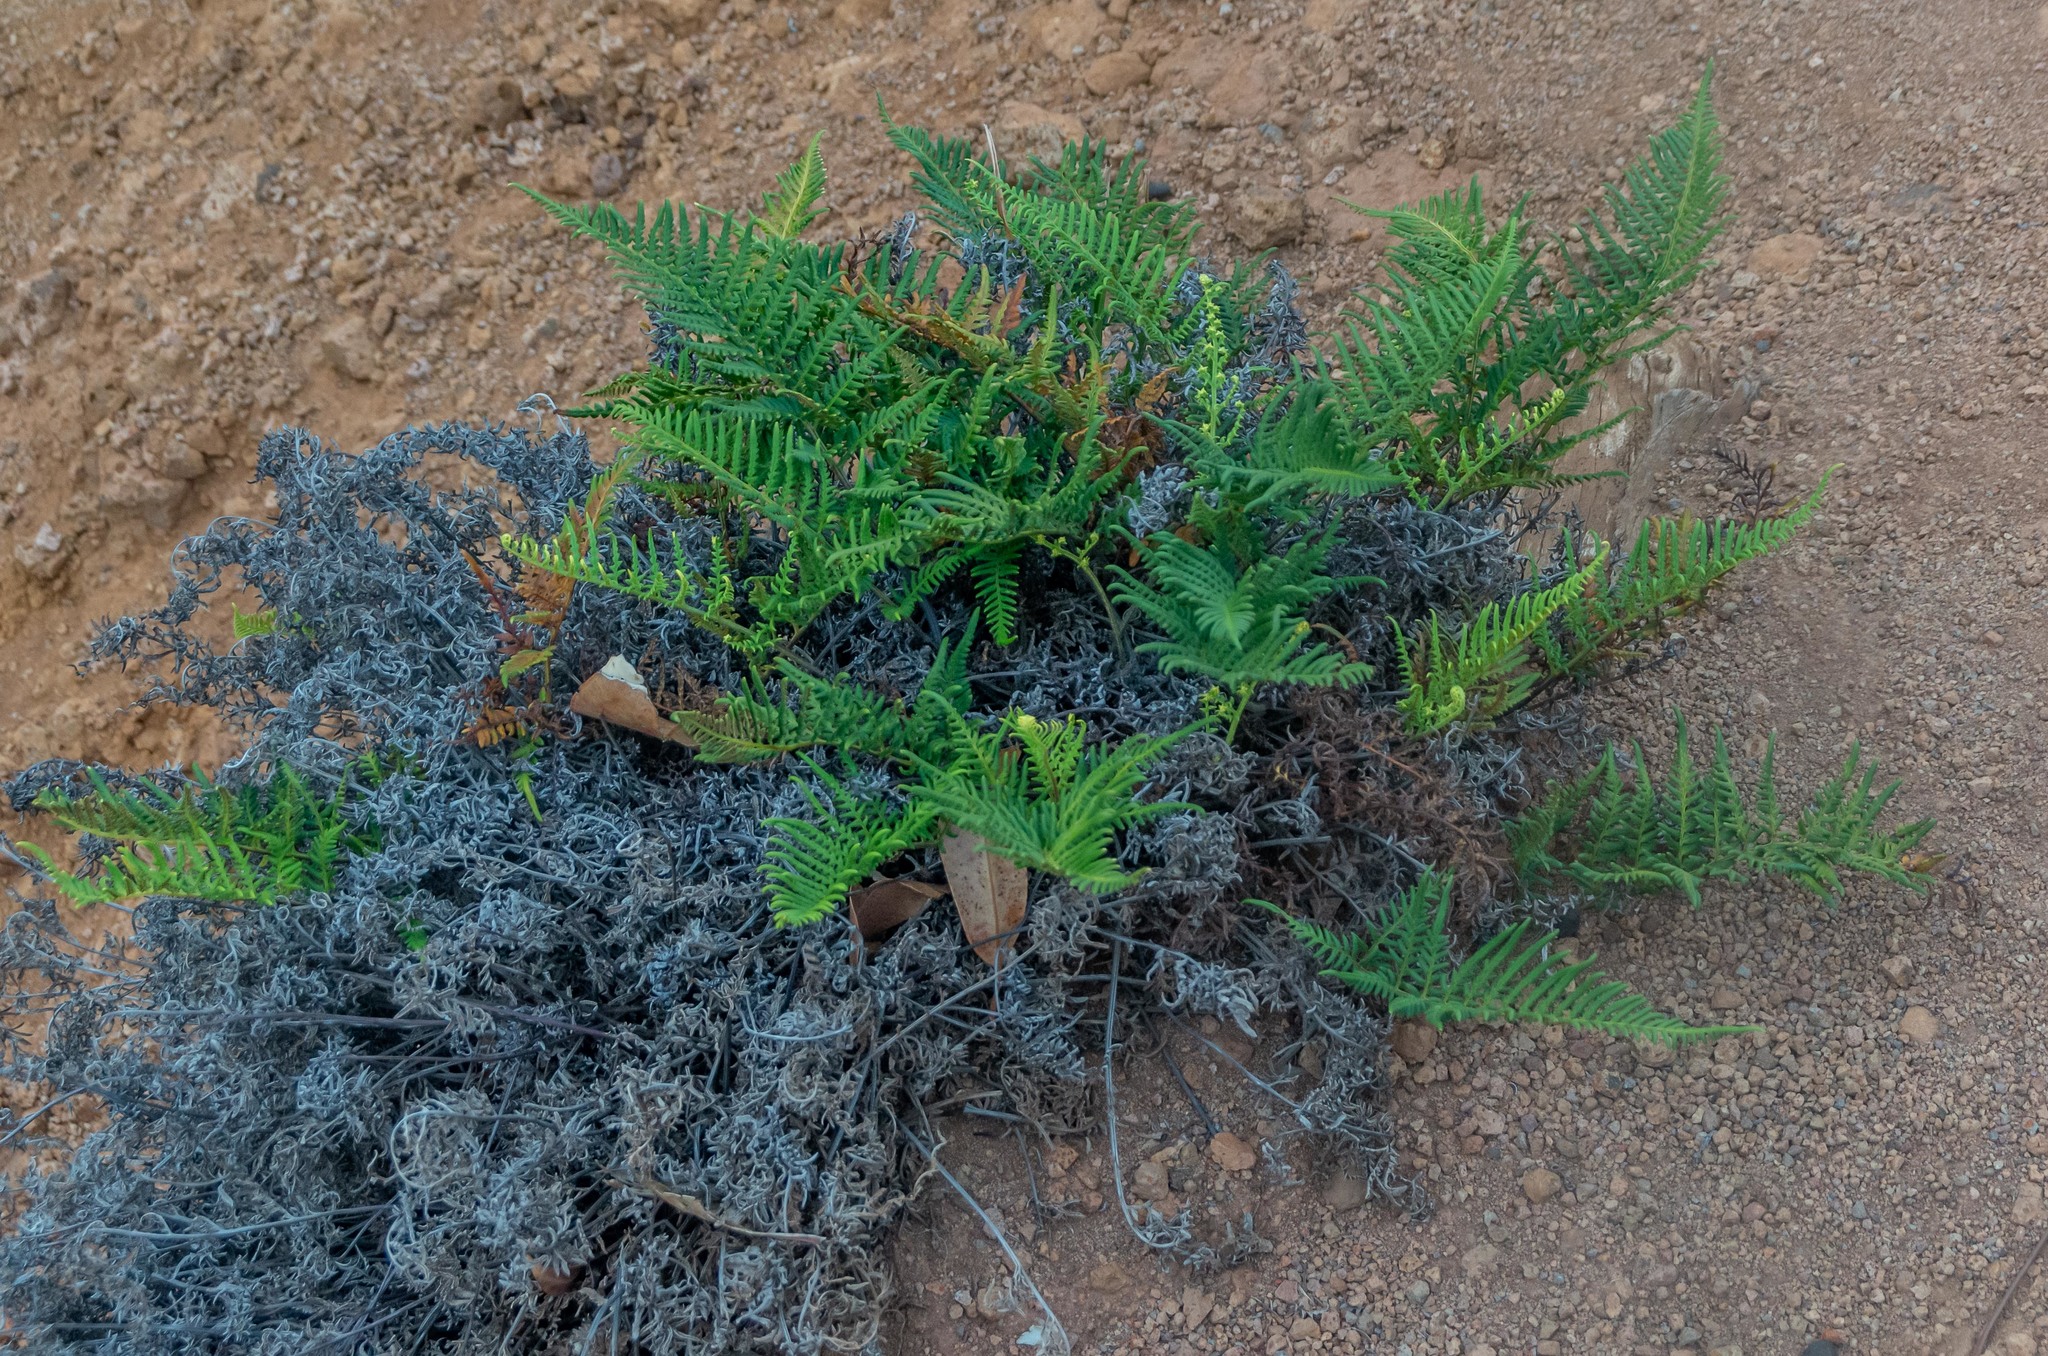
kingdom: Plantae
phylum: Tracheophyta
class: Polypodiopsida
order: Polypodiales
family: Pteridaceae
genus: Pityrogramma
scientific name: Pityrogramma austroamericana
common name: Leatherleaf goldback fern
